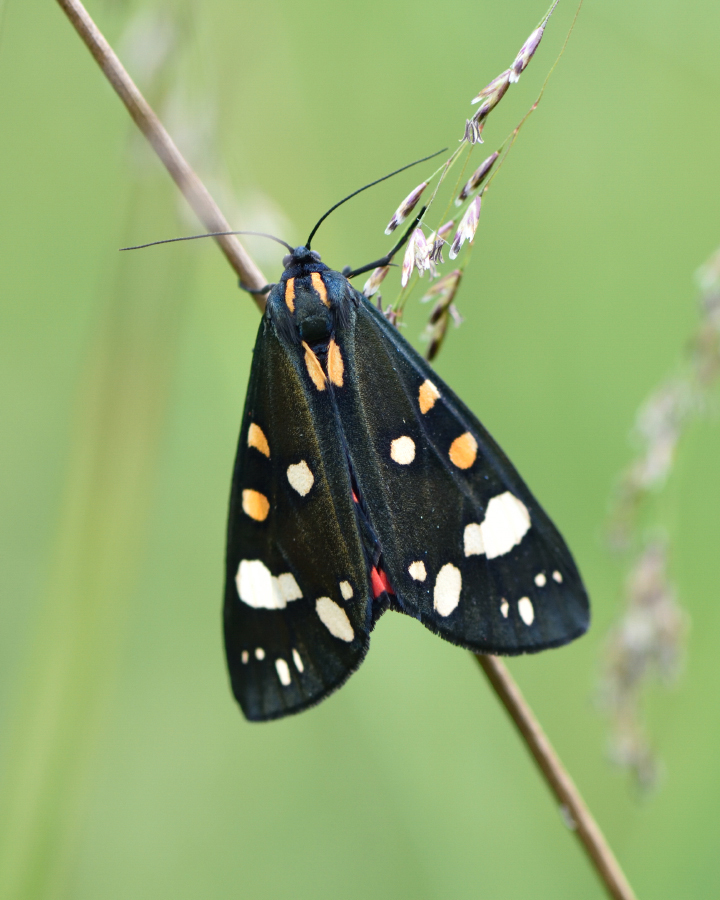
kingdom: Animalia
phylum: Arthropoda
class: Insecta
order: Lepidoptera
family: Erebidae
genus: Callimorpha
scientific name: Callimorpha dominula
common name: Scarlet tiger
